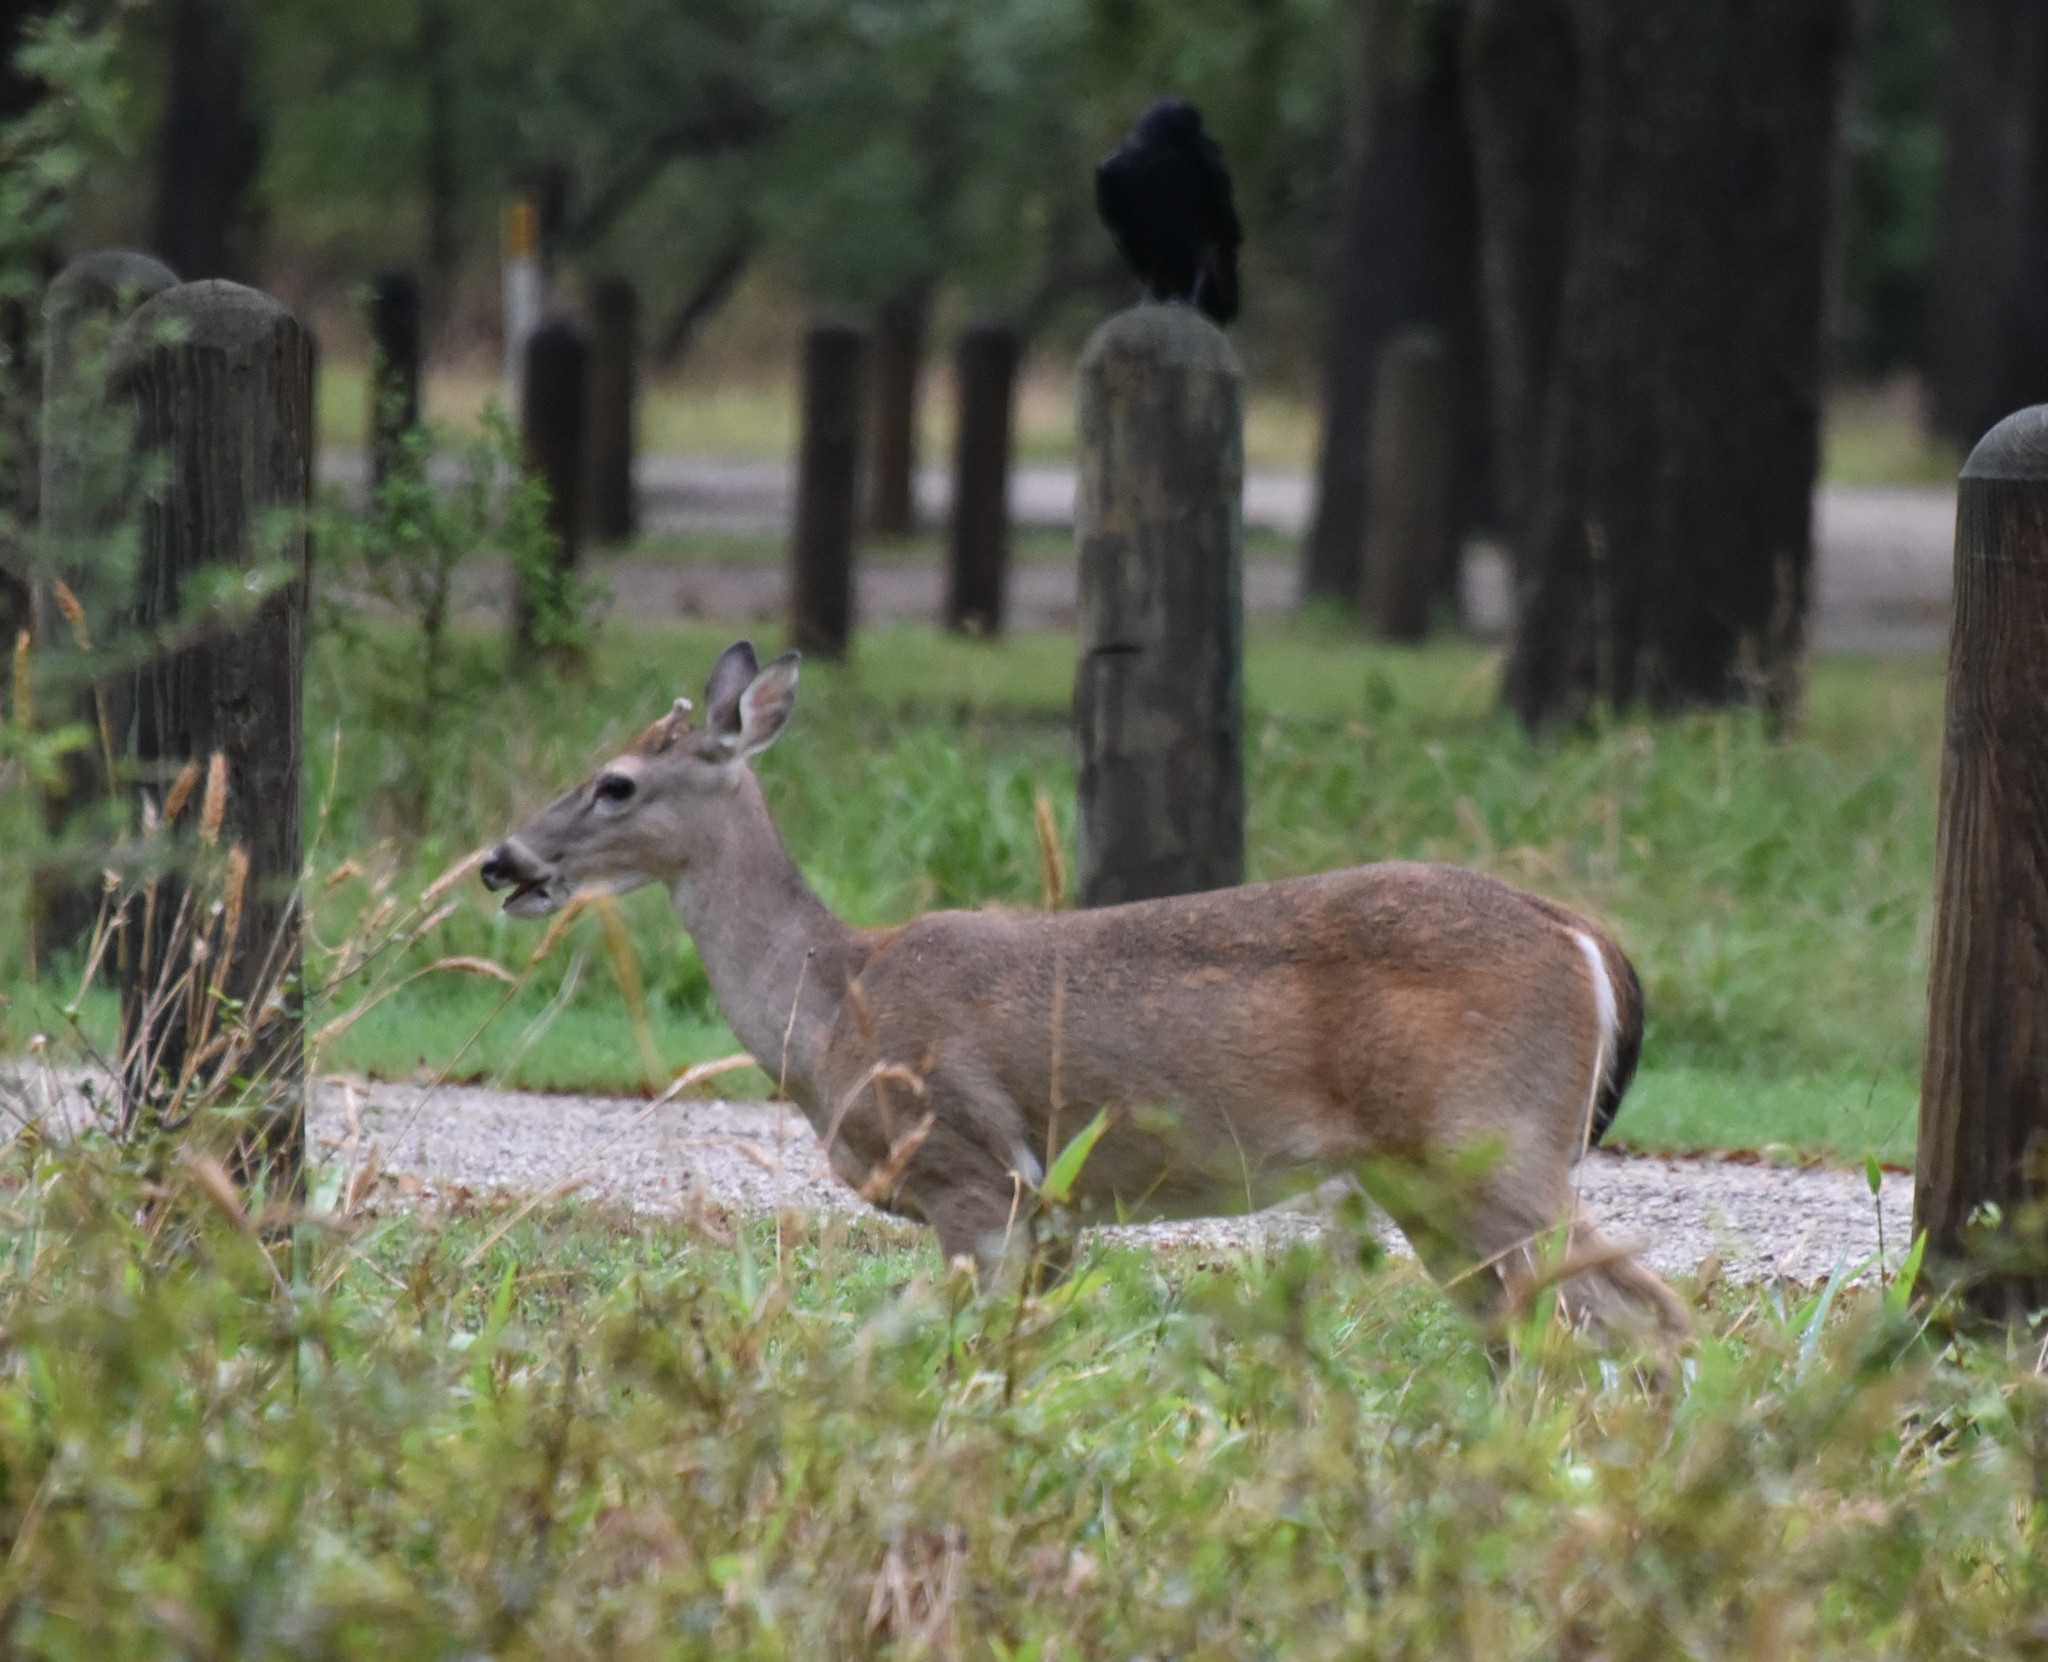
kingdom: Animalia
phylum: Chordata
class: Mammalia
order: Artiodactyla
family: Cervidae
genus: Odocoileus
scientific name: Odocoileus virginianus
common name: White-tailed deer
